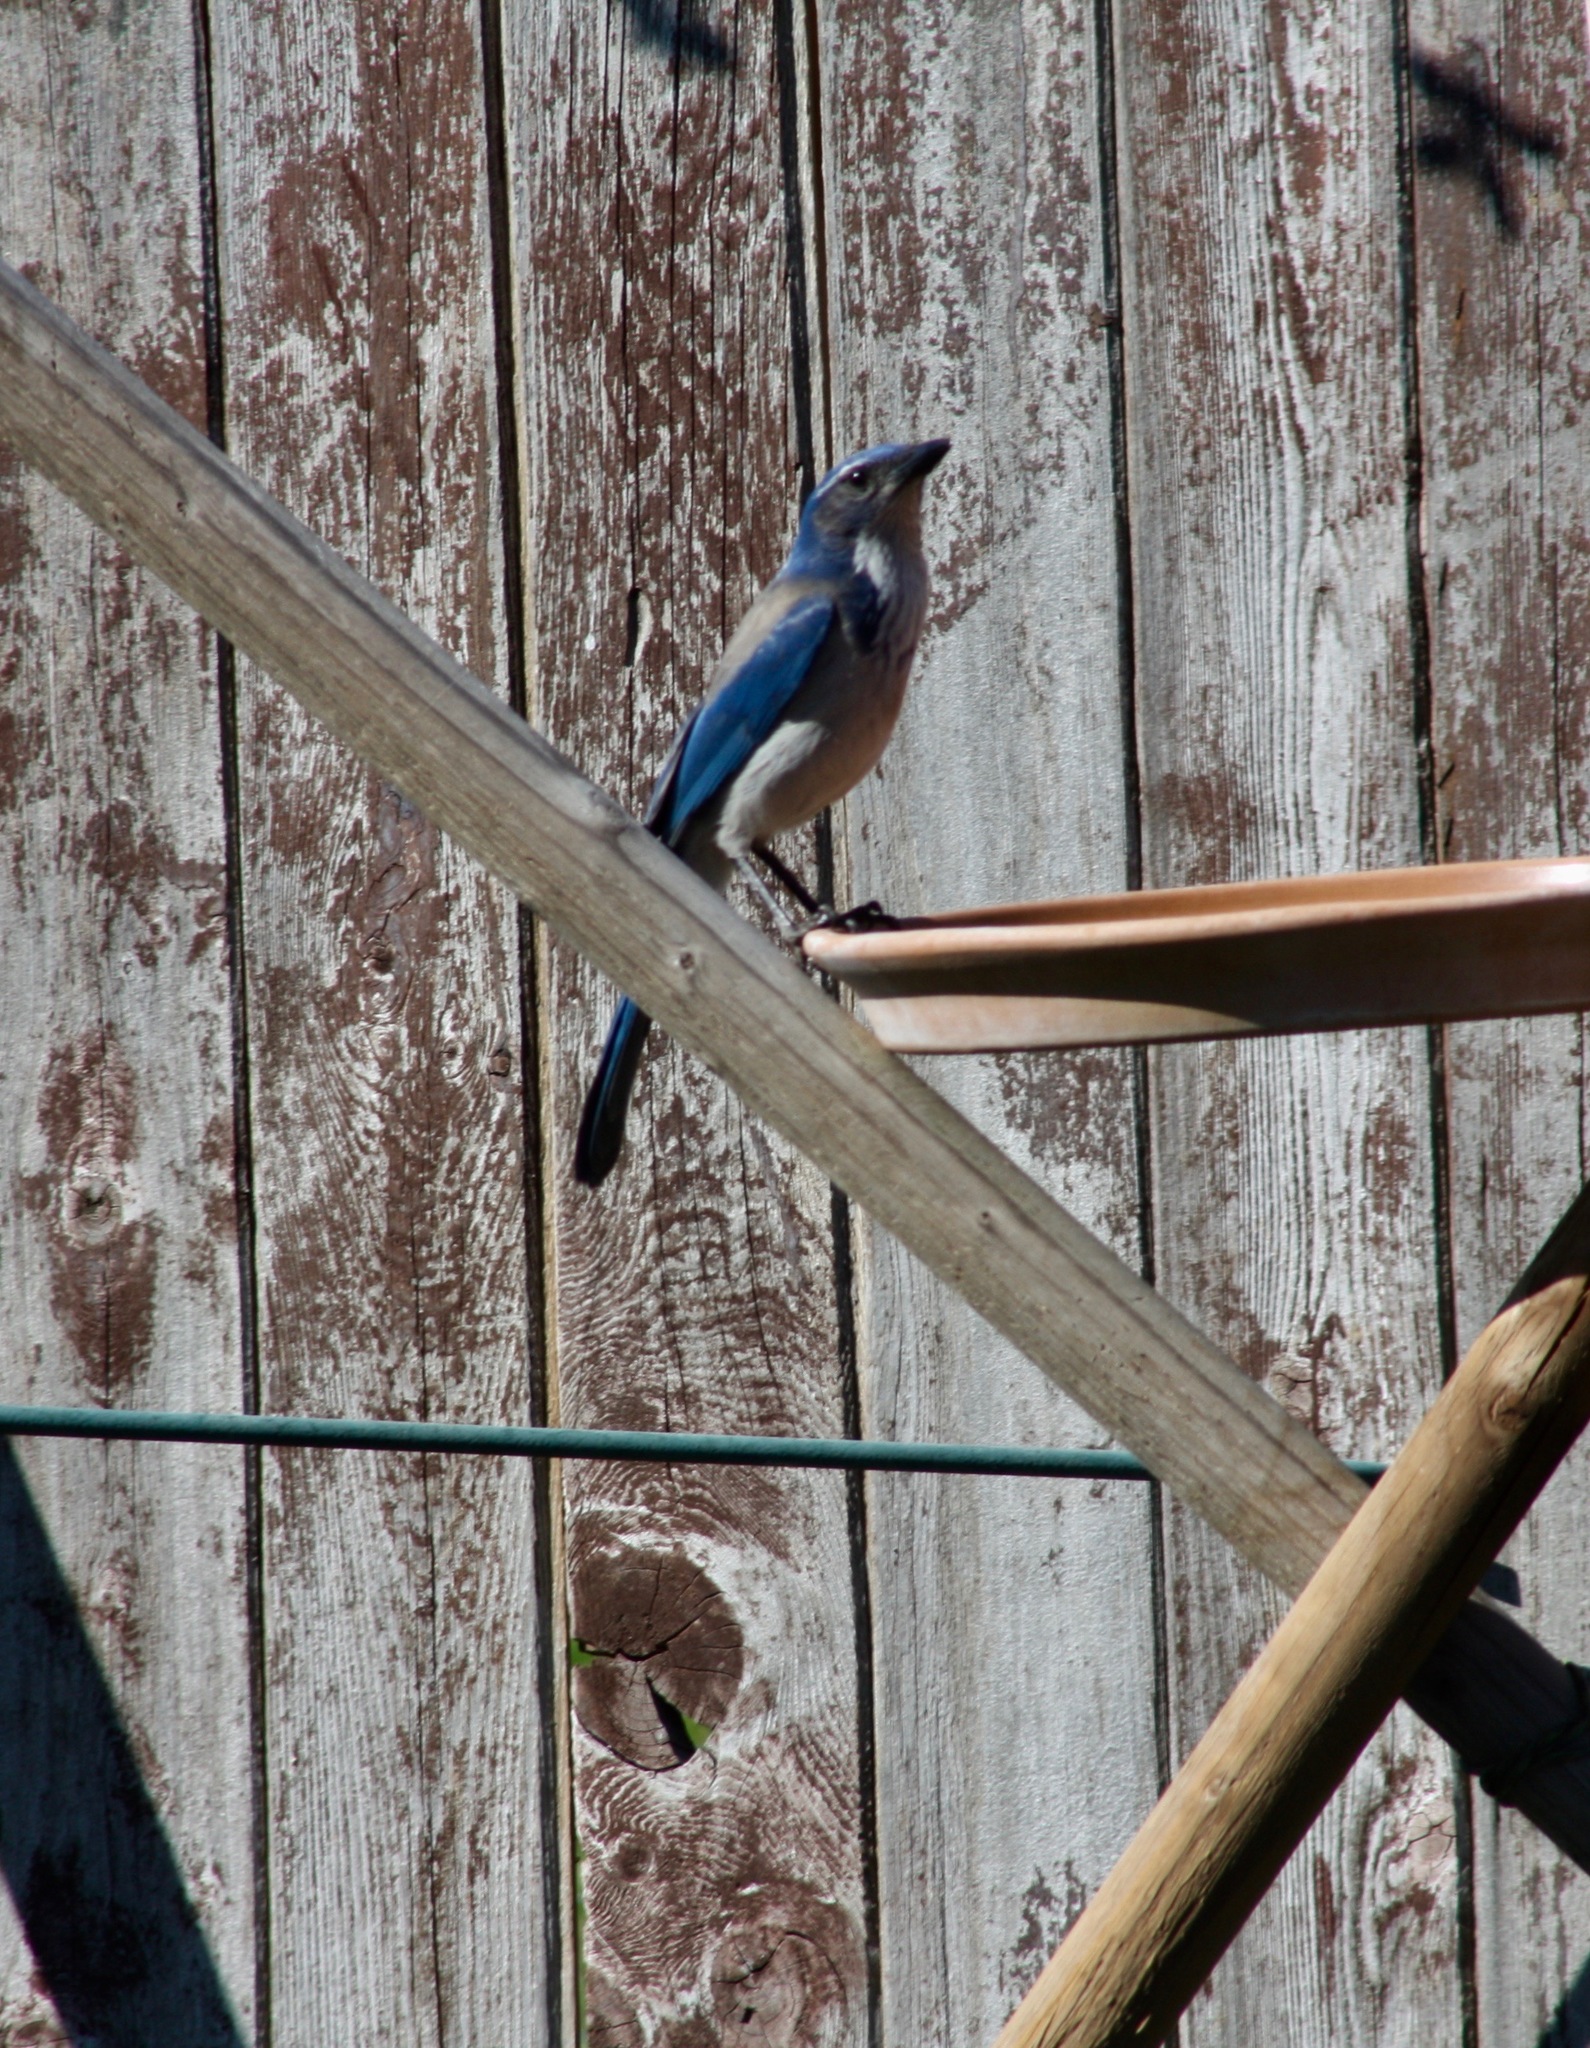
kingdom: Animalia
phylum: Chordata
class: Aves
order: Passeriformes
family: Corvidae
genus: Aphelocoma
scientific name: Aphelocoma californica
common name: California scrub-jay
